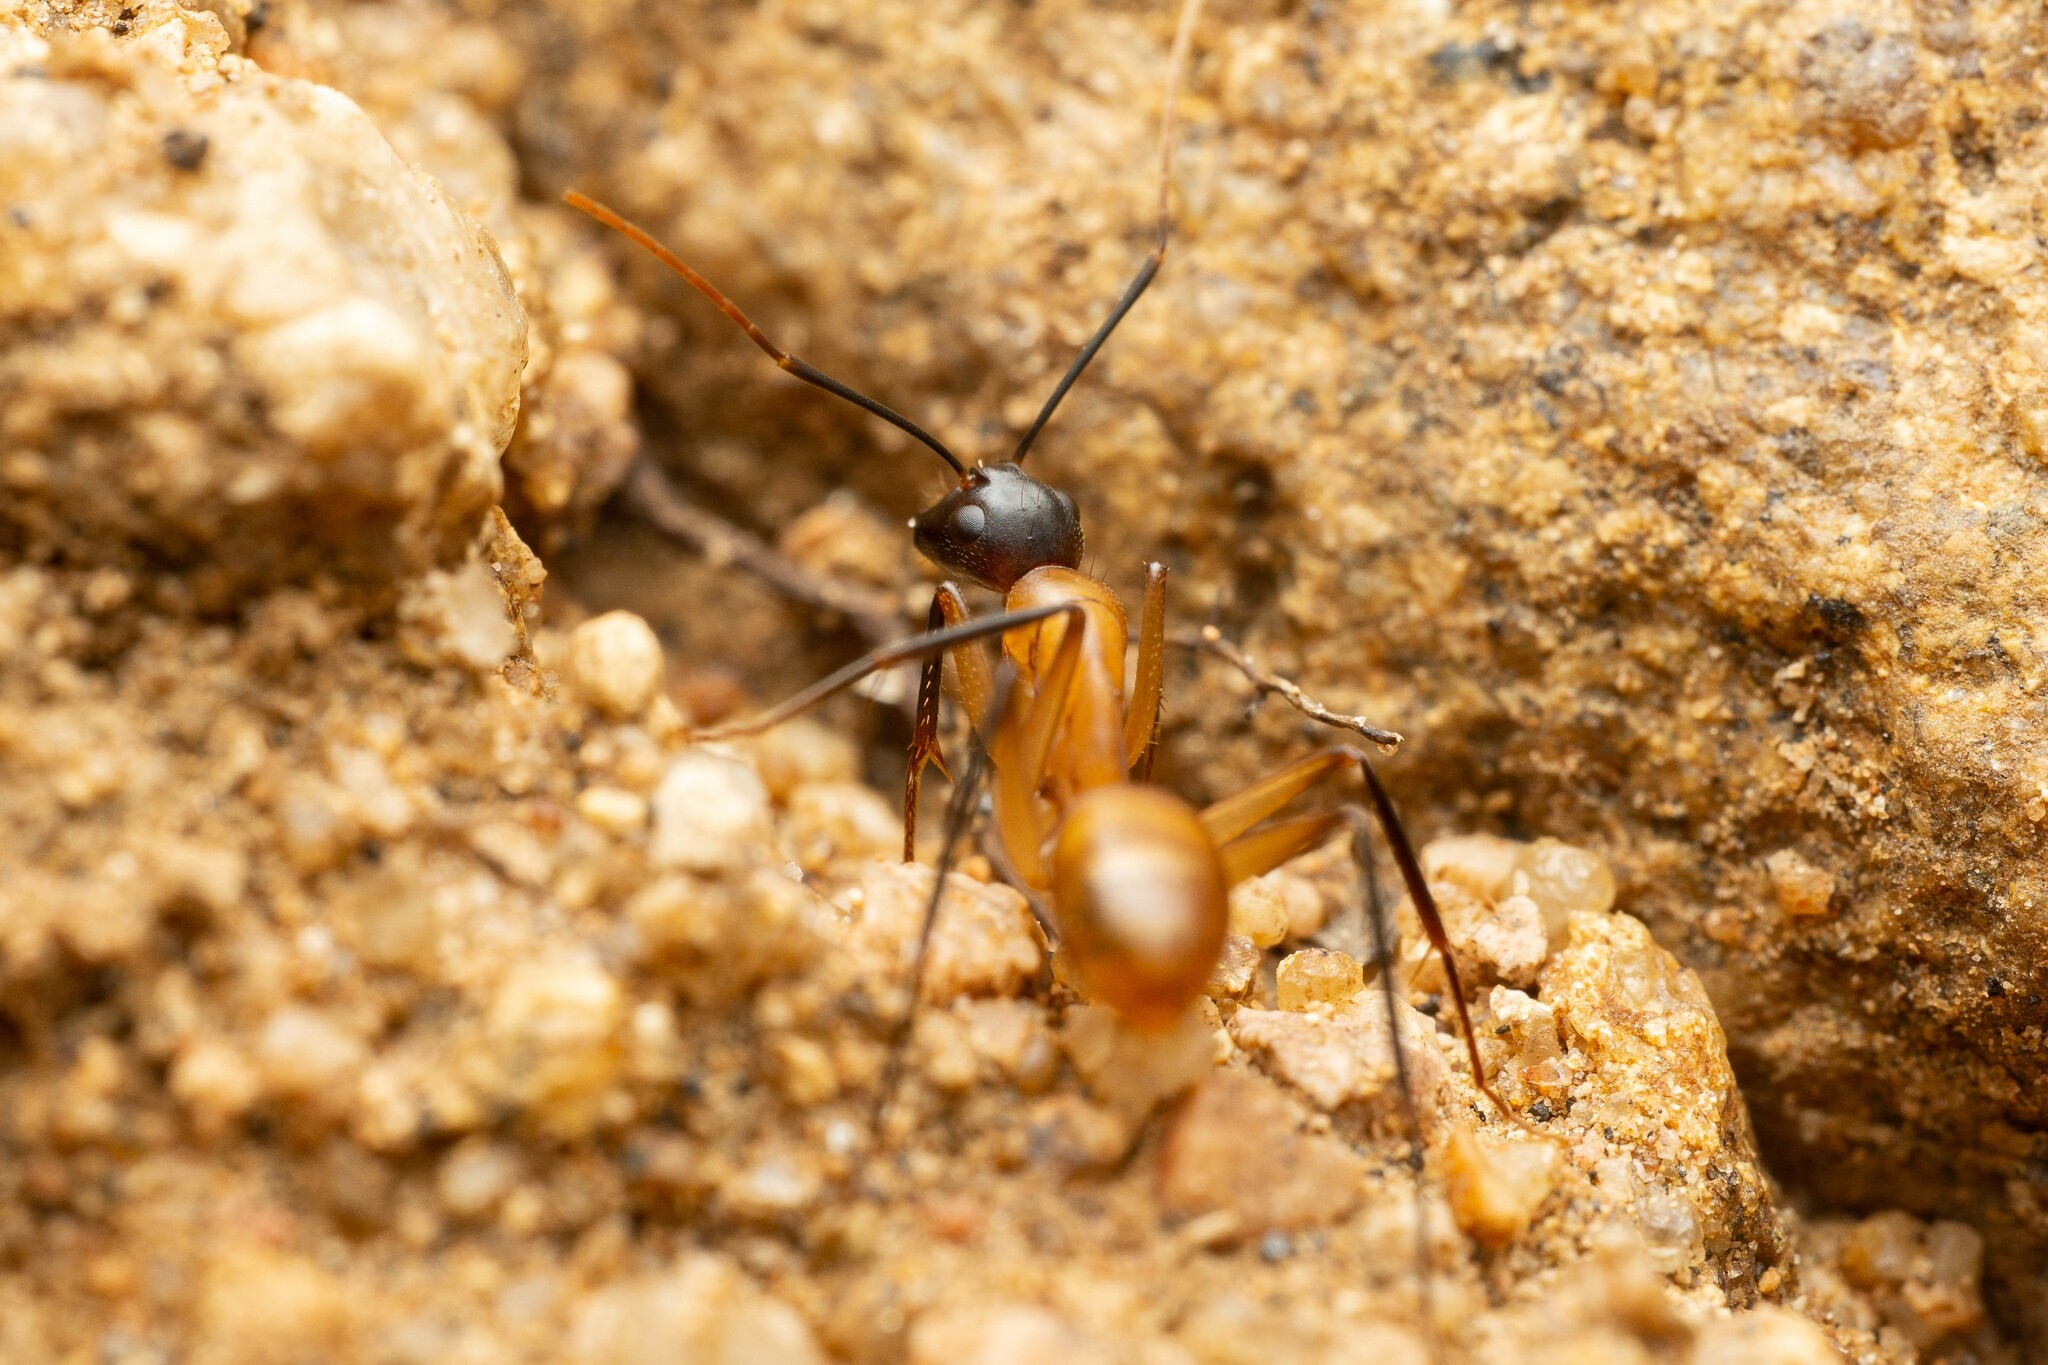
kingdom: Animalia
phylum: Arthropoda
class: Insecta
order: Hymenoptera
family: Formicidae
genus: Camponotus
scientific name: Camponotus ocreatus
